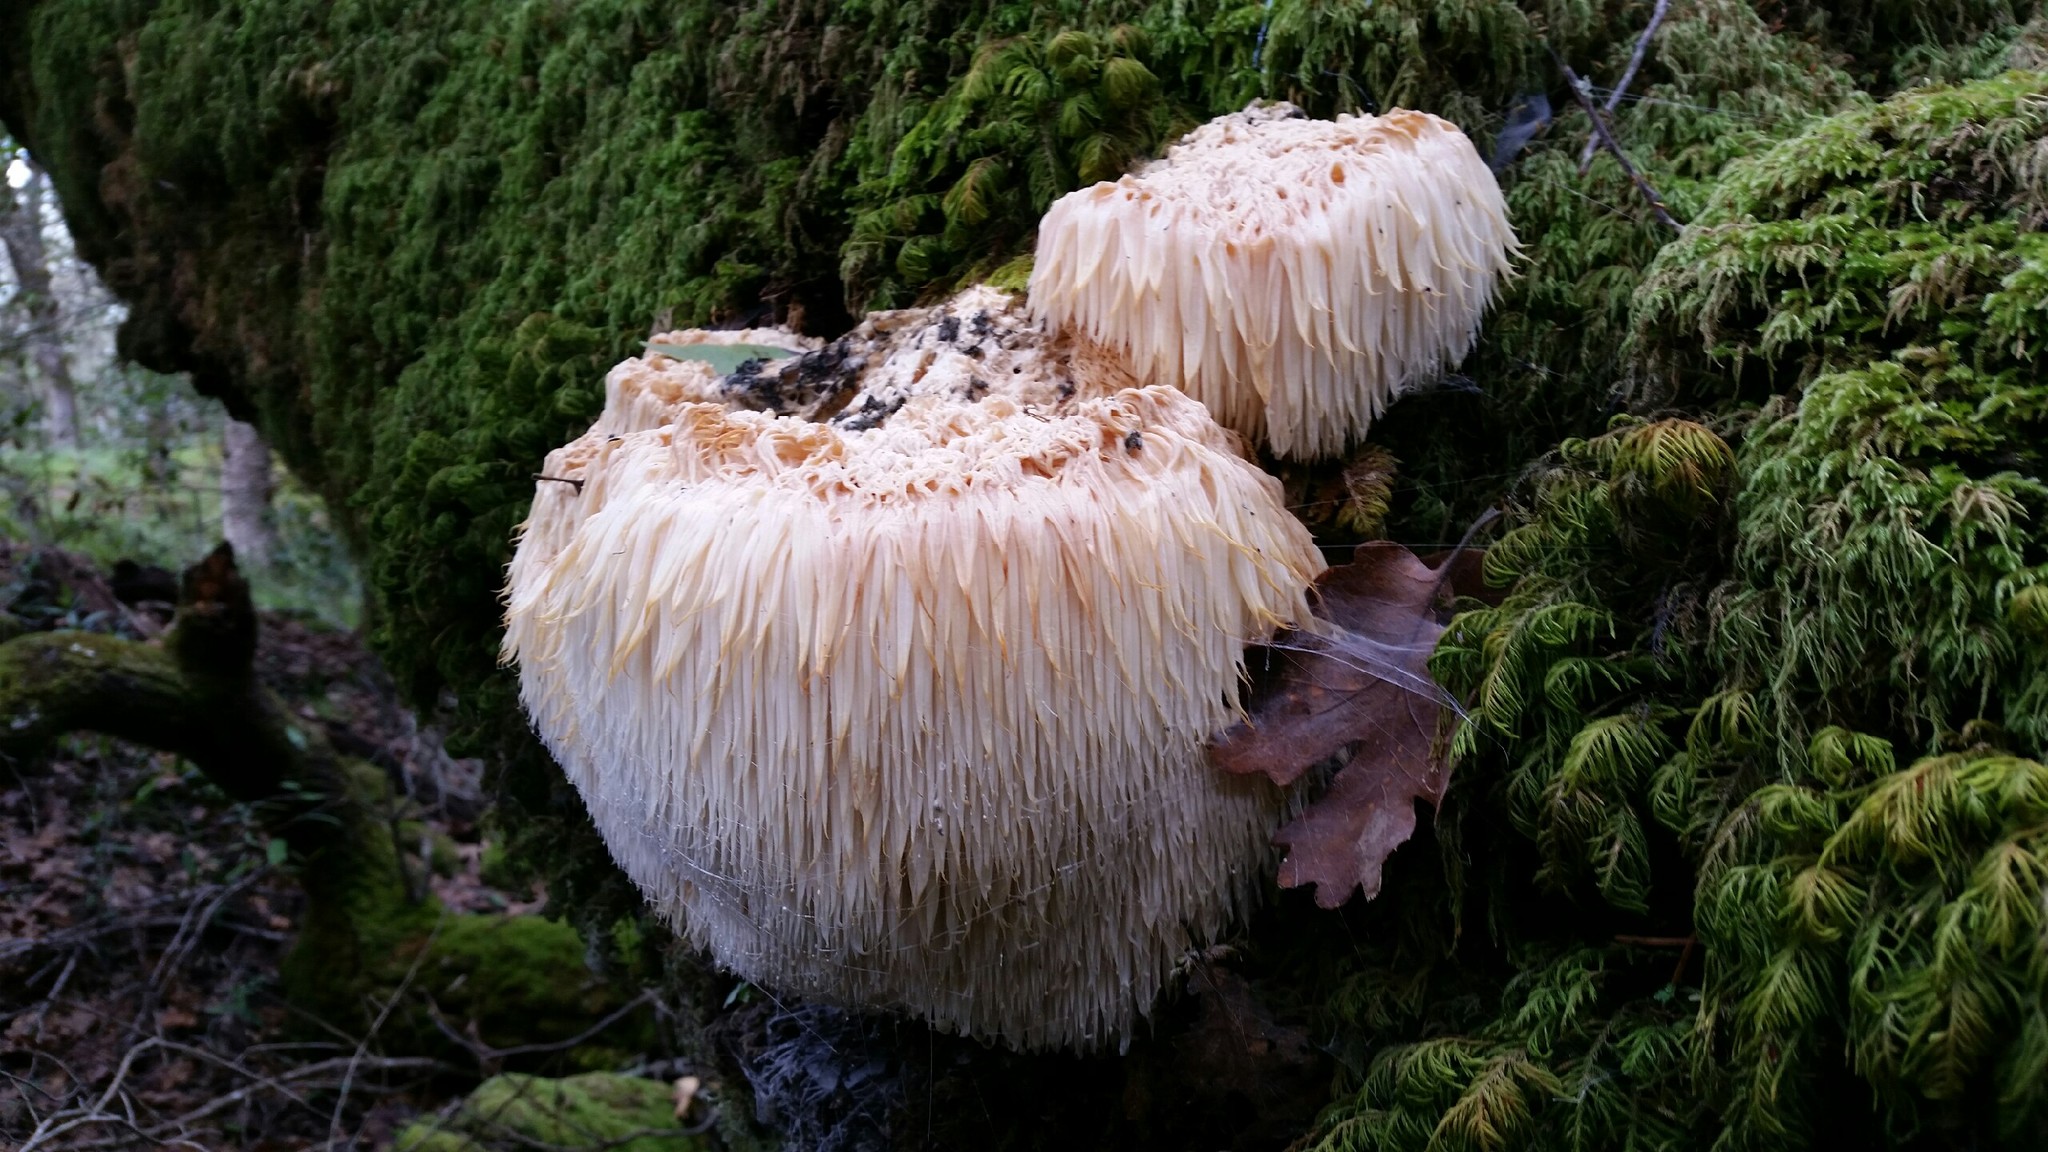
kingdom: Fungi
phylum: Basidiomycota
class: Agaricomycetes
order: Russulales
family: Hericiaceae
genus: Hericium
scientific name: Hericium erinaceus
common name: Bearded tooth
